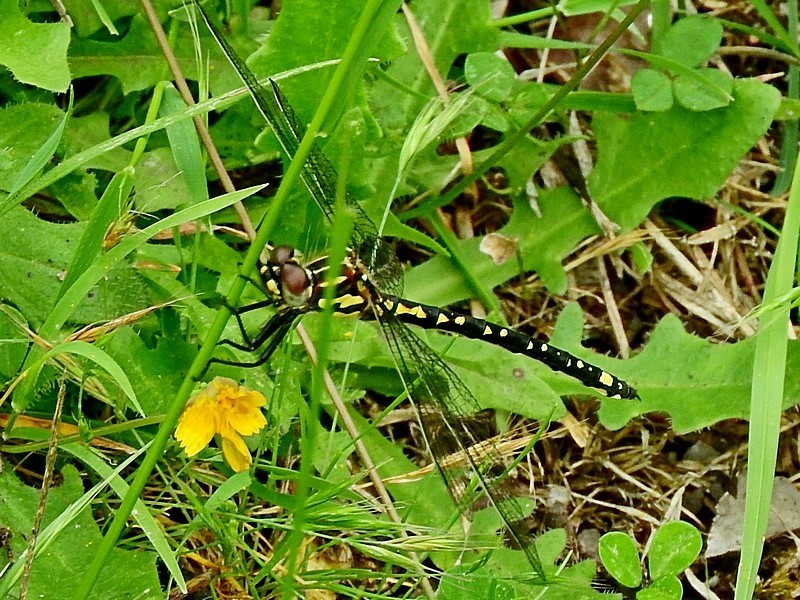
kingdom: Animalia
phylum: Arthropoda
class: Insecta
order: Odonata
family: Synthemistidae
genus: Eusynthemis
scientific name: Eusynthemis virgula
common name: Golden tigertail
